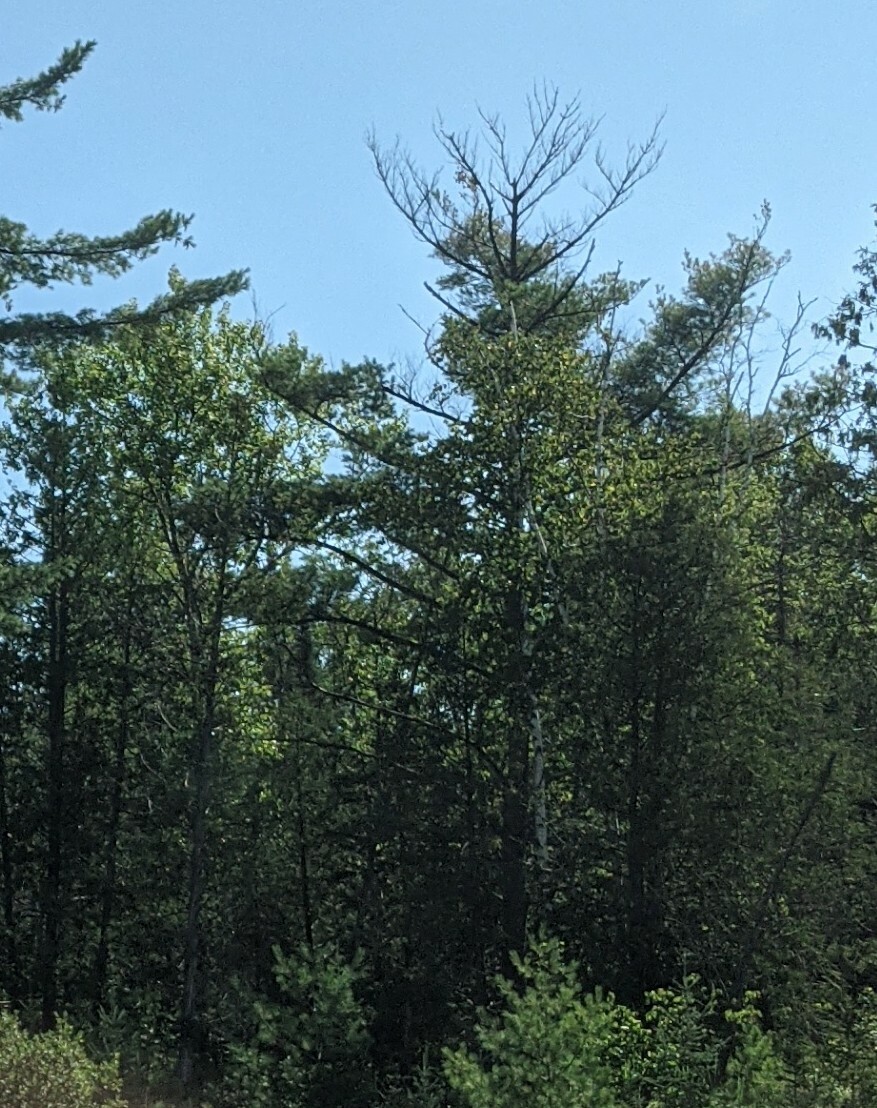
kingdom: Plantae
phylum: Tracheophyta
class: Pinopsida
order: Pinales
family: Pinaceae
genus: Pinus
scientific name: Pinus strobus
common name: Weymouth pine
